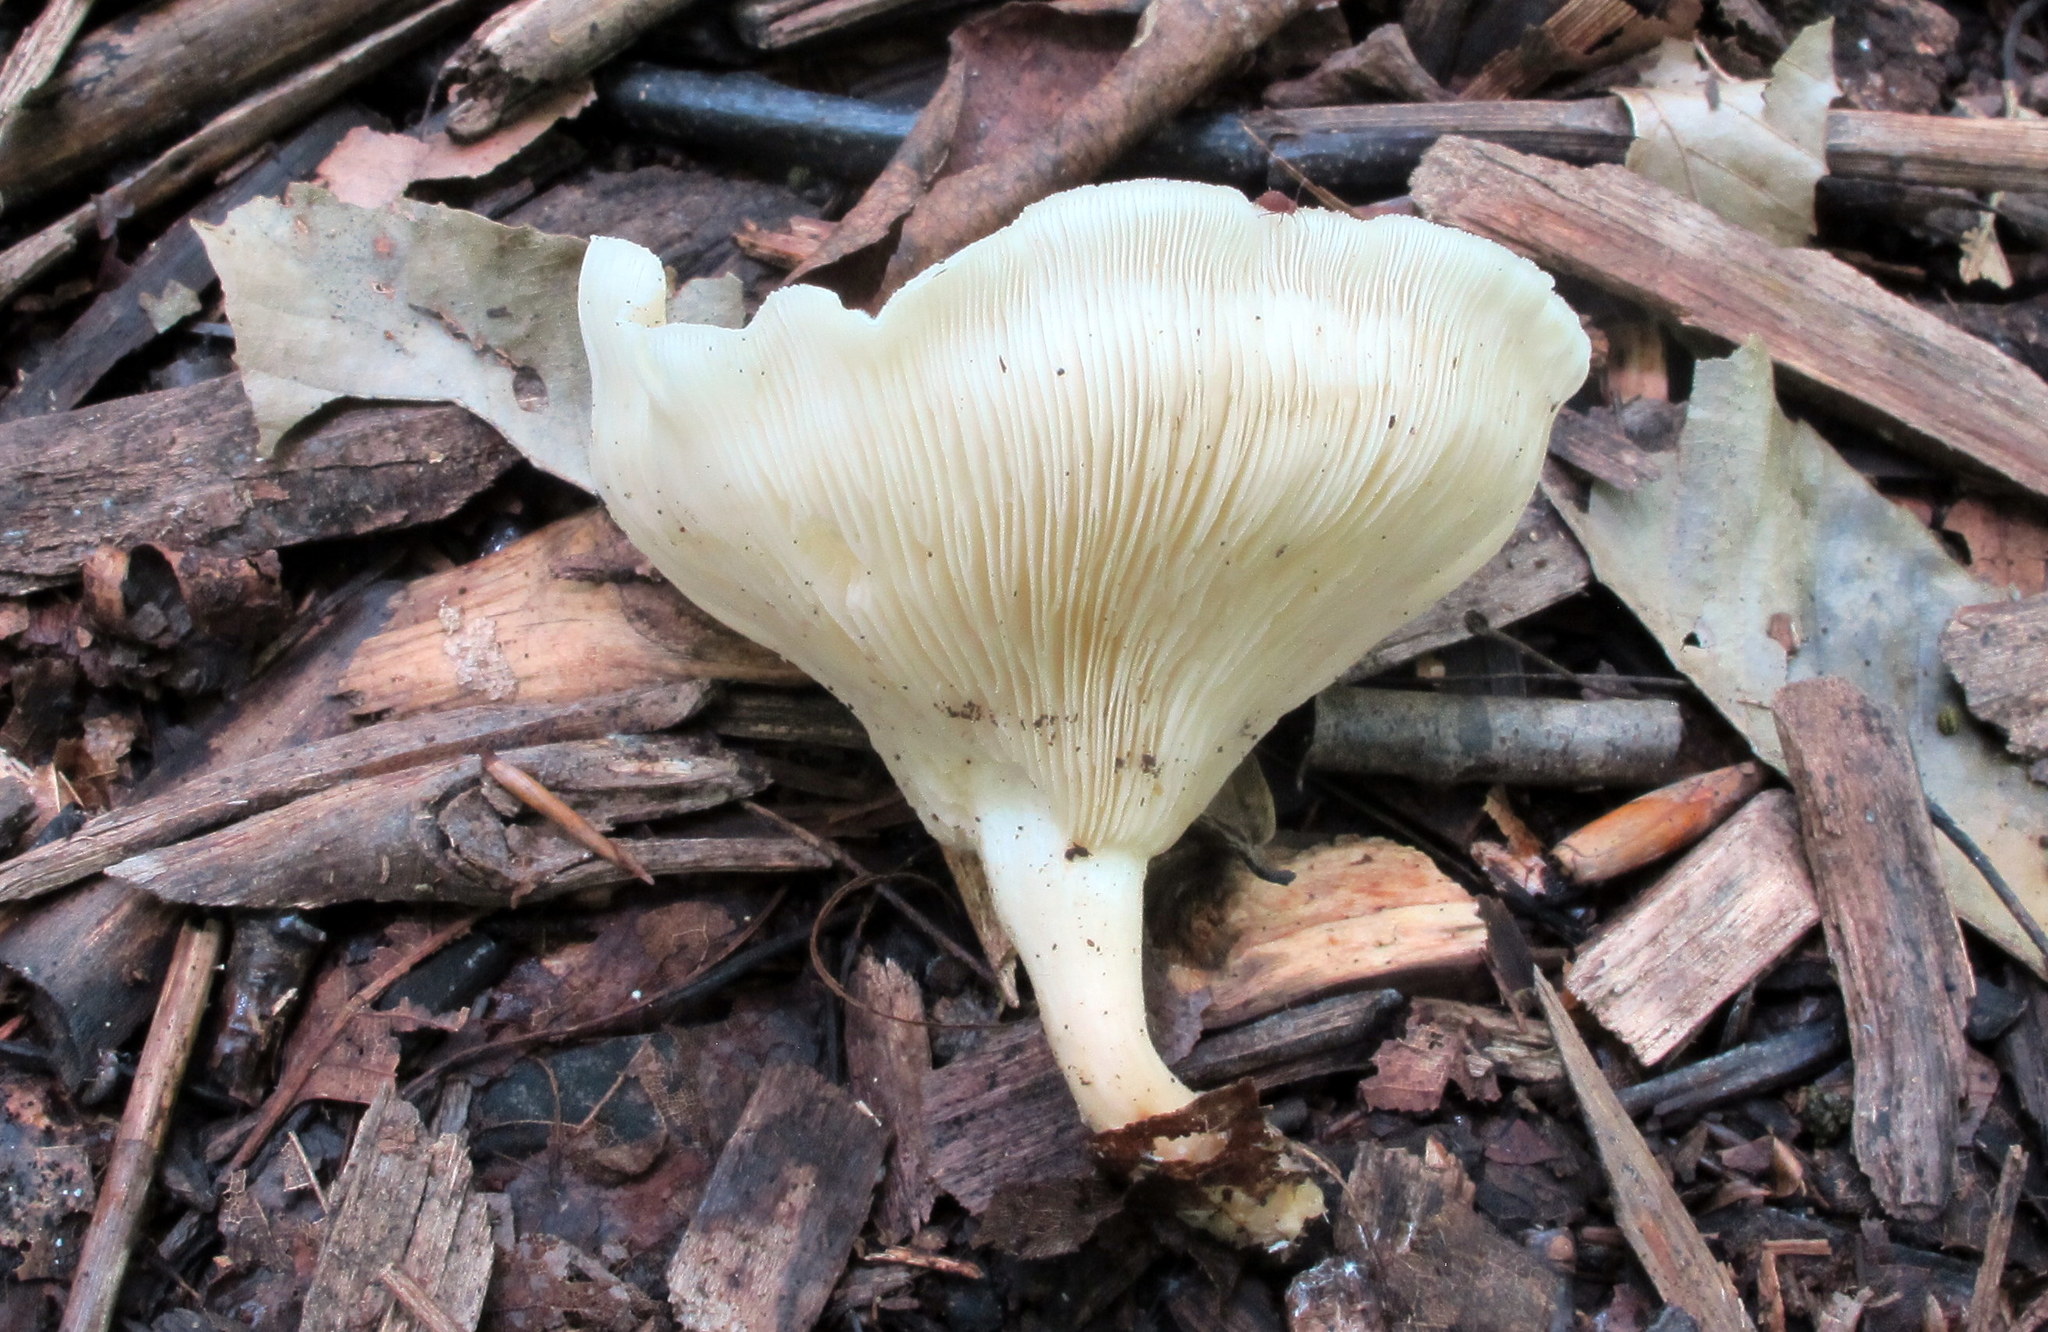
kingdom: Fungi
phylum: Basidiomycota
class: Agaricomycetes
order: Agaricales
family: Tricholomataceae
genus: Collybia
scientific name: Collybia
